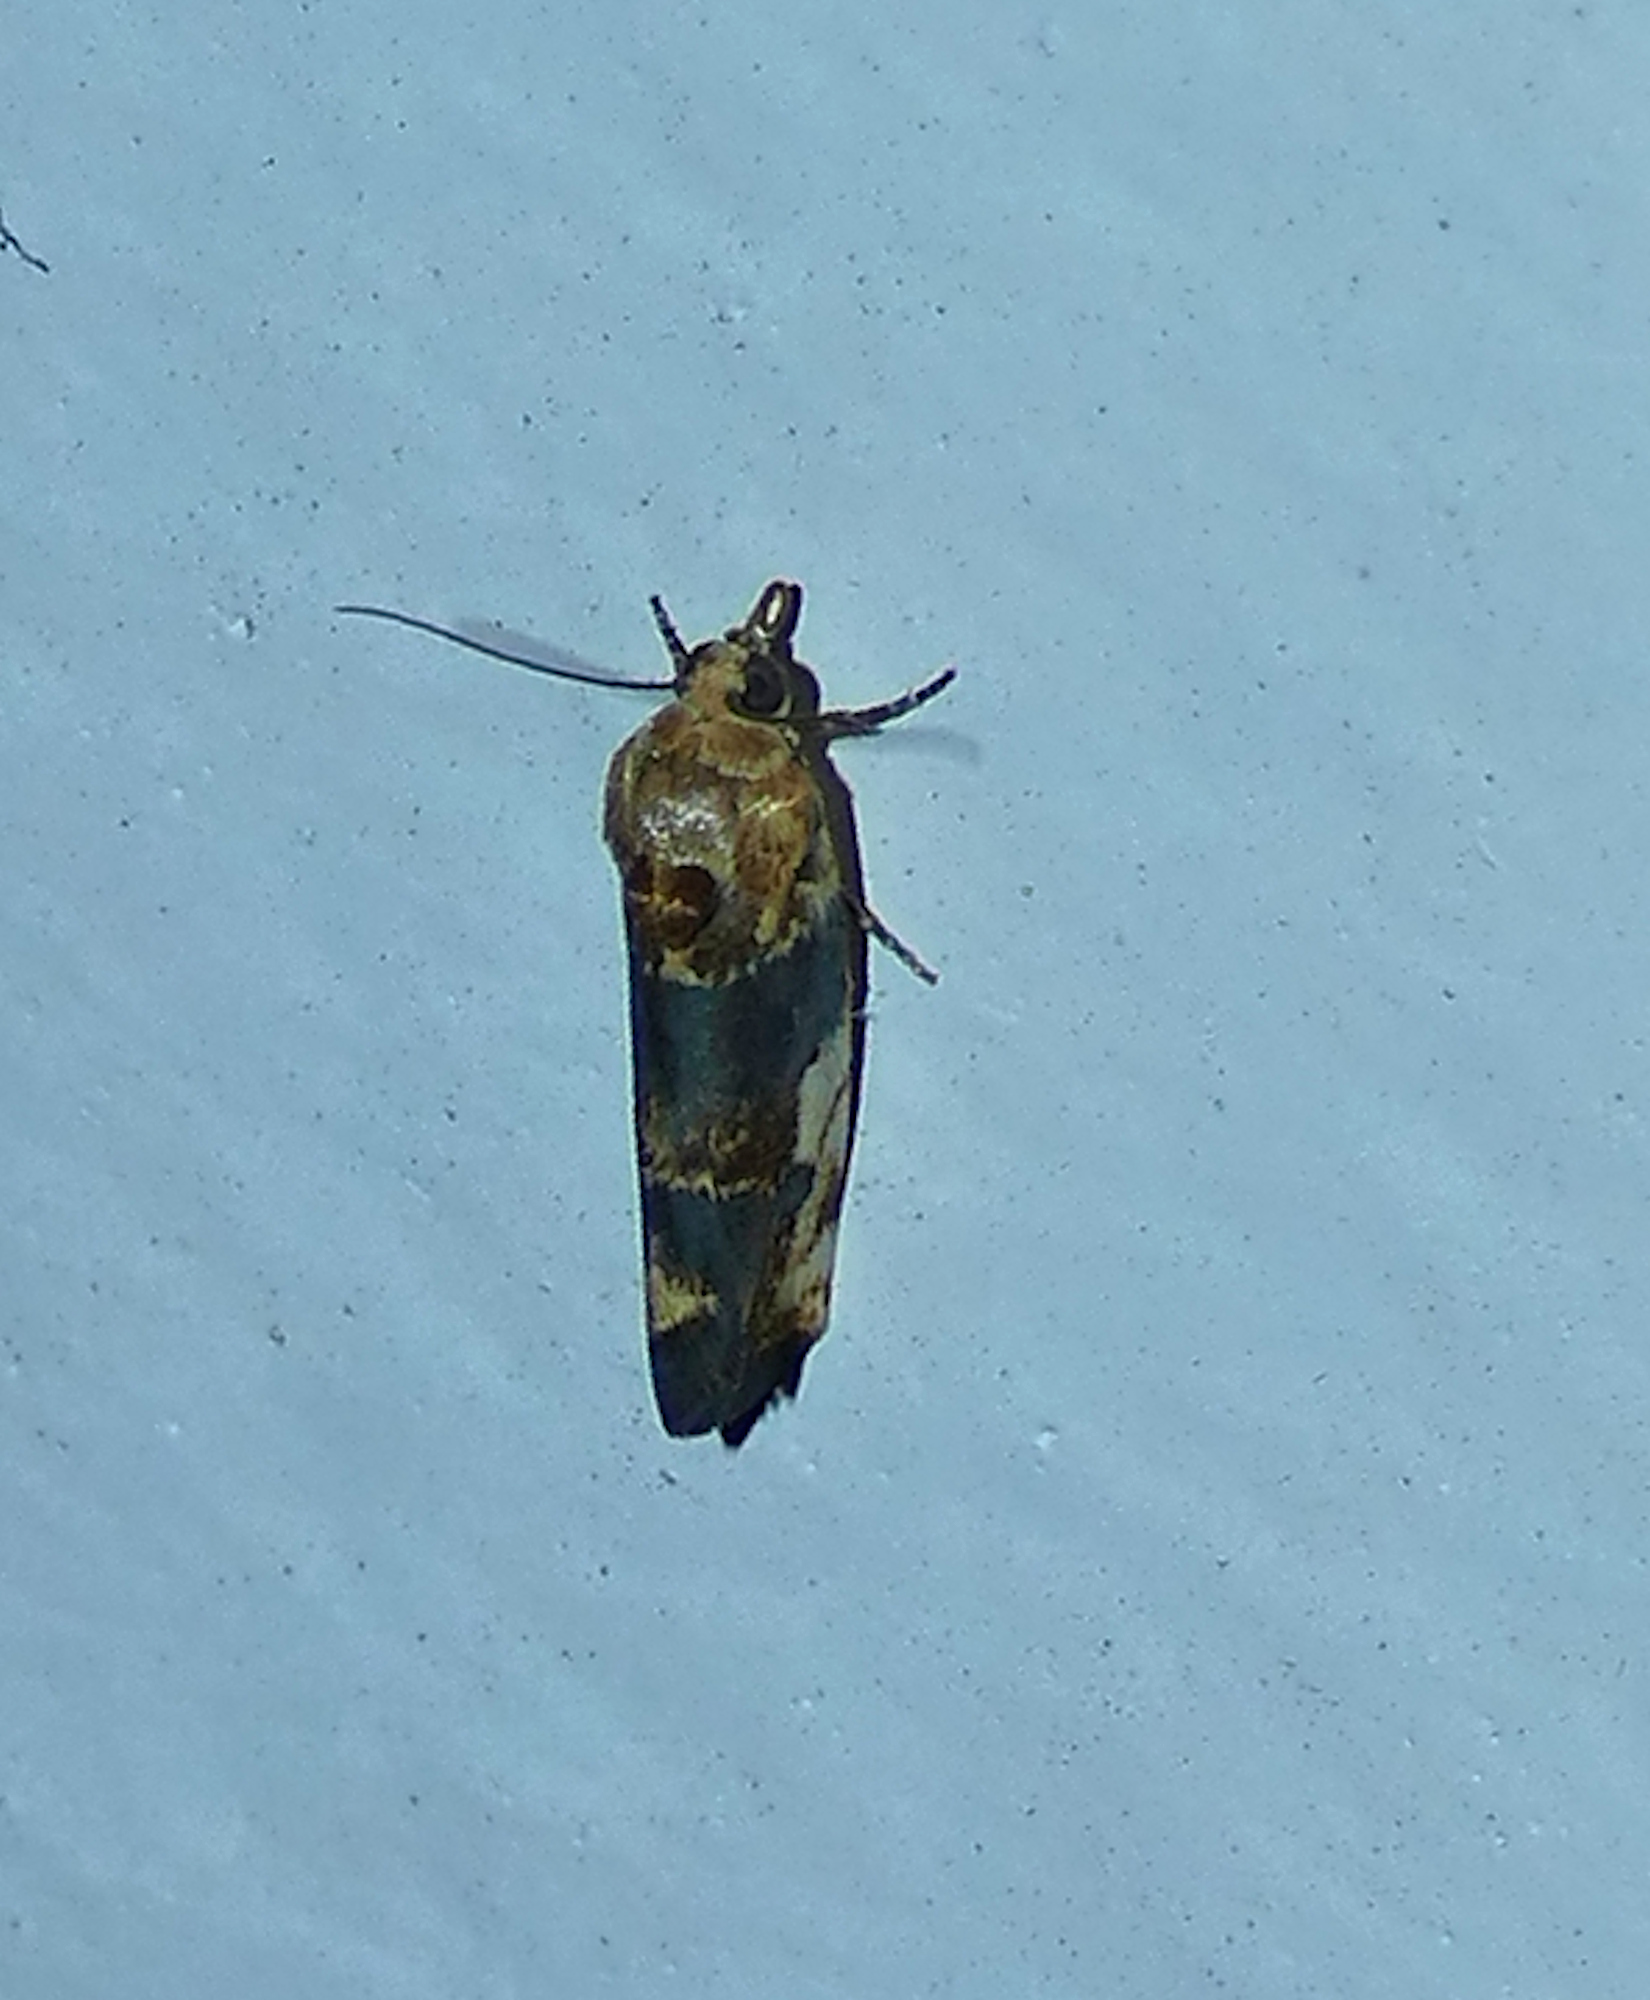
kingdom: Animalia
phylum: Arthropoda
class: Insecta
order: Lepidoptera
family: Noctuidae
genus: Acontia
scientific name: Acontia obatra
